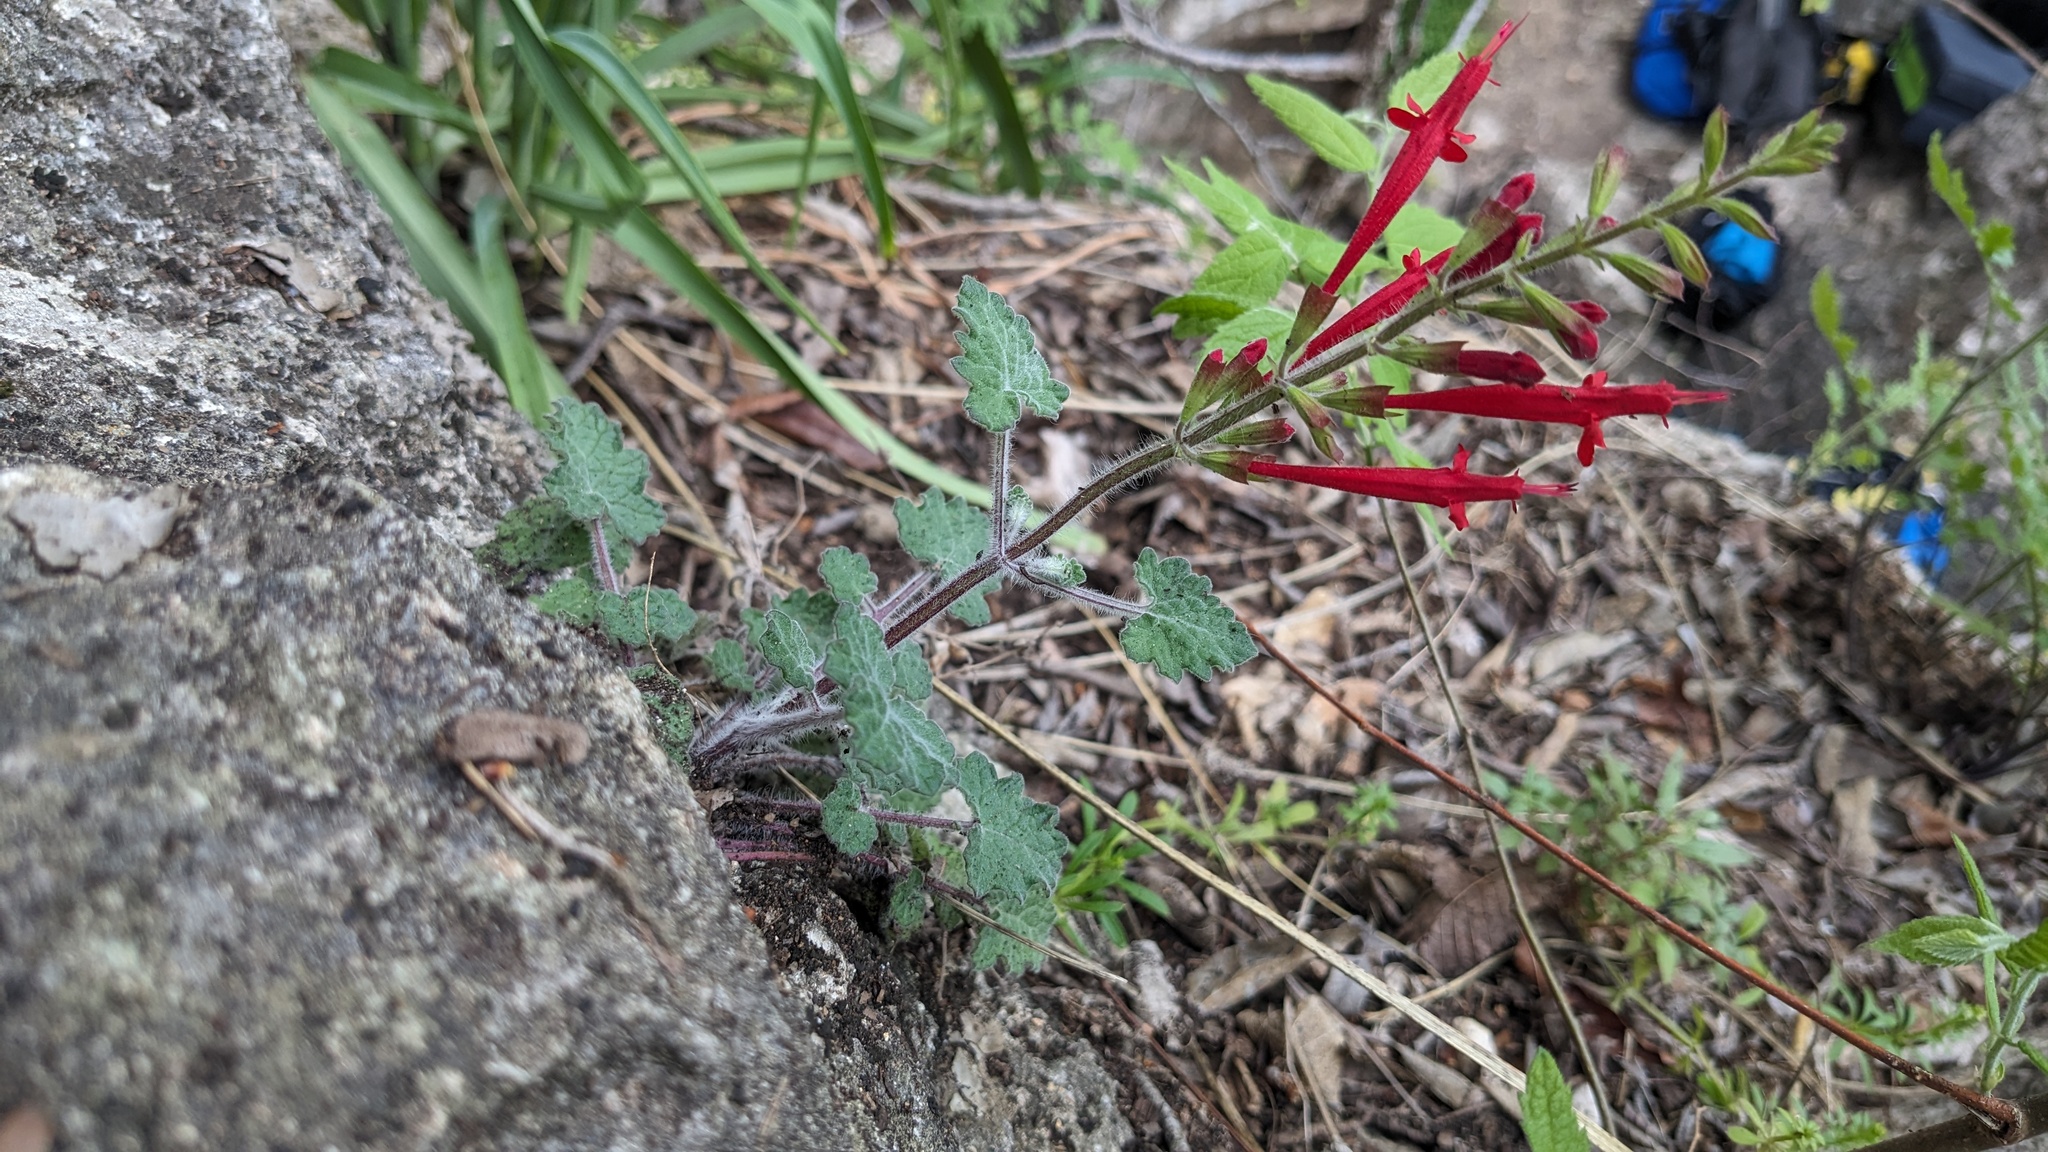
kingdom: Plantae
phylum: Tracheophyta
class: Magnoliopsida
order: Lamiales
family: Lamiaceae
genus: Salvia
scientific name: Salvia roemeriana
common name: Cedar sage
